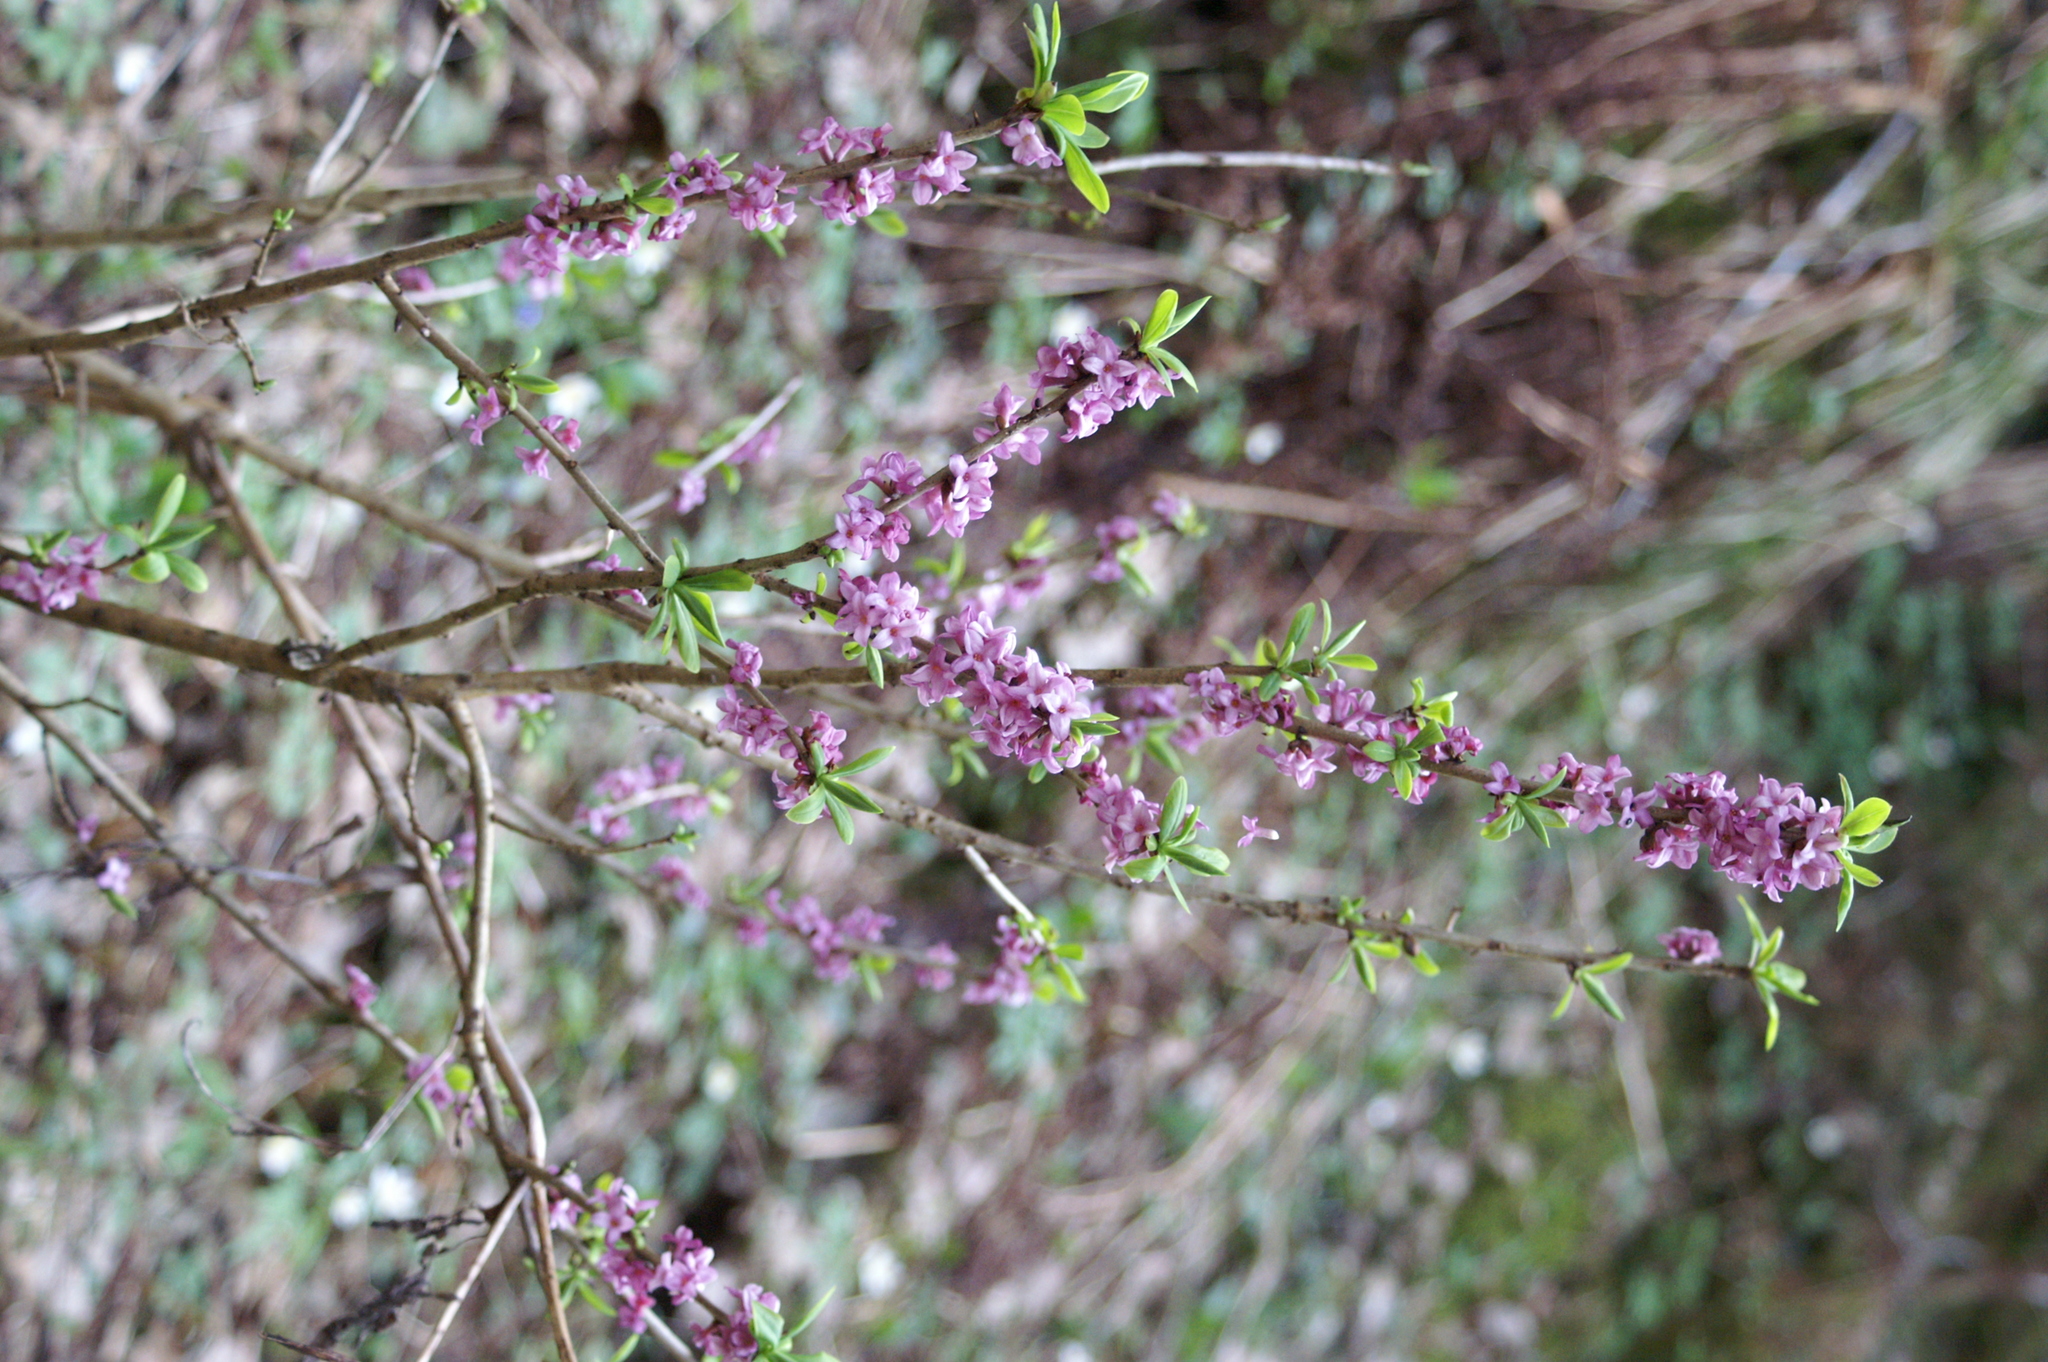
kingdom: Plantae
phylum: Tracheophyta
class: Magnoliopsida
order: Malvales
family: Thymelaeaceae
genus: Daphne
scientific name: Daphne mezereum
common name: Mezereon
